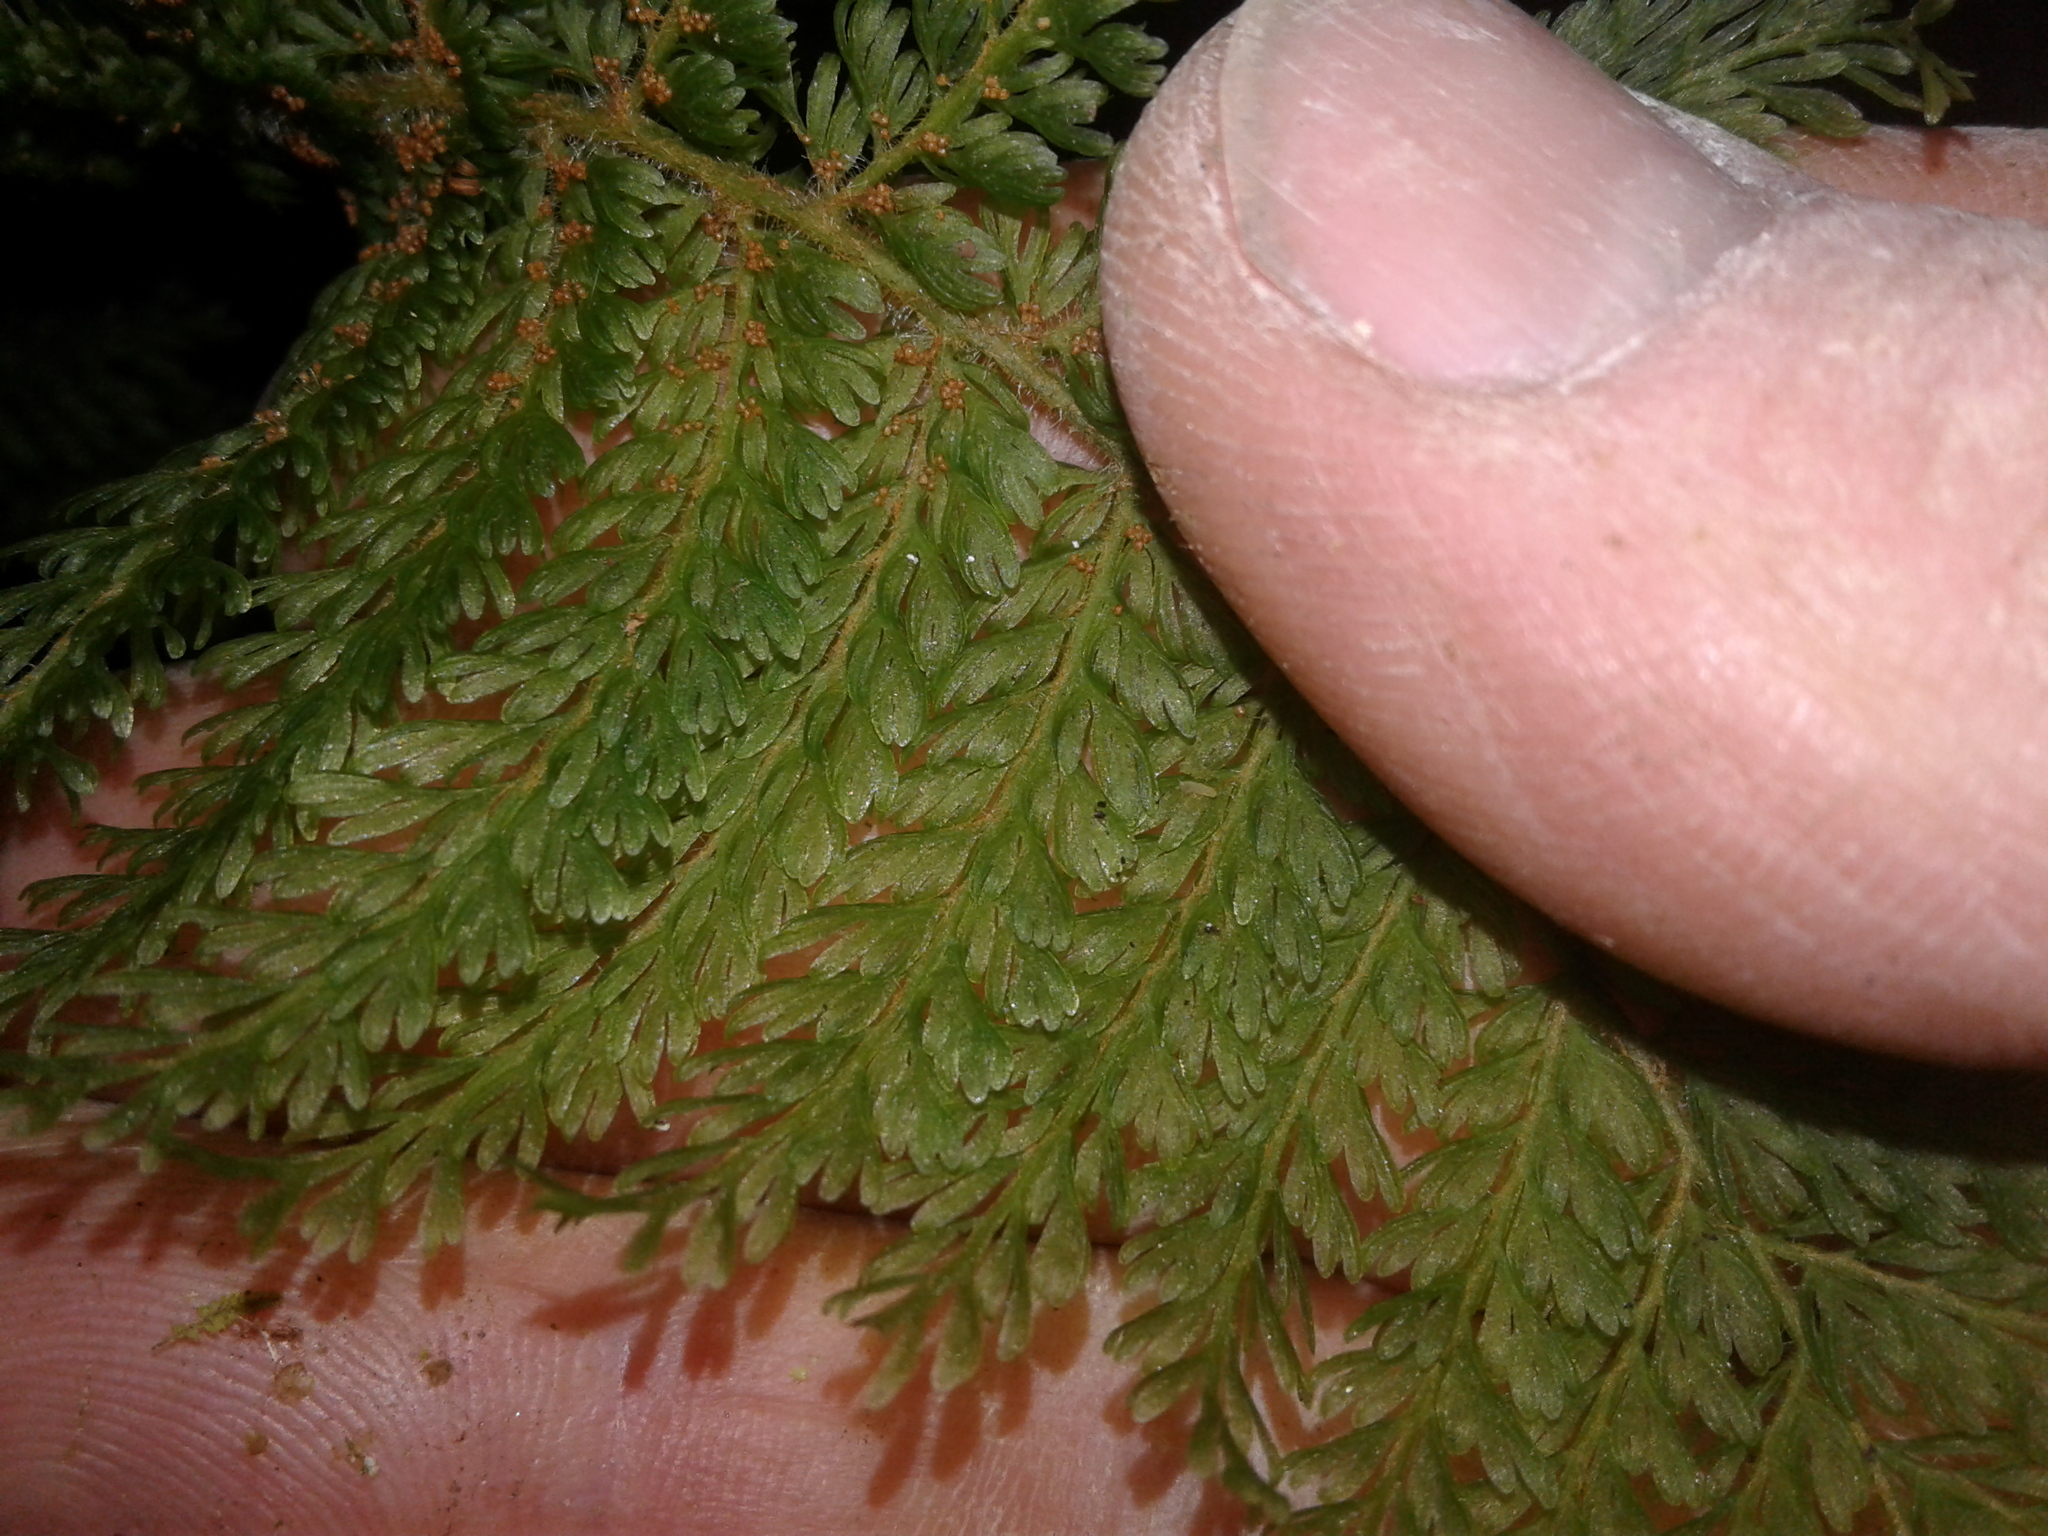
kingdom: Plantae
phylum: Tracheophyta
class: Polypodiopsida
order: Osmundales
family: Osmundaceae
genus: Leptopteris
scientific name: Leptopteris superba
